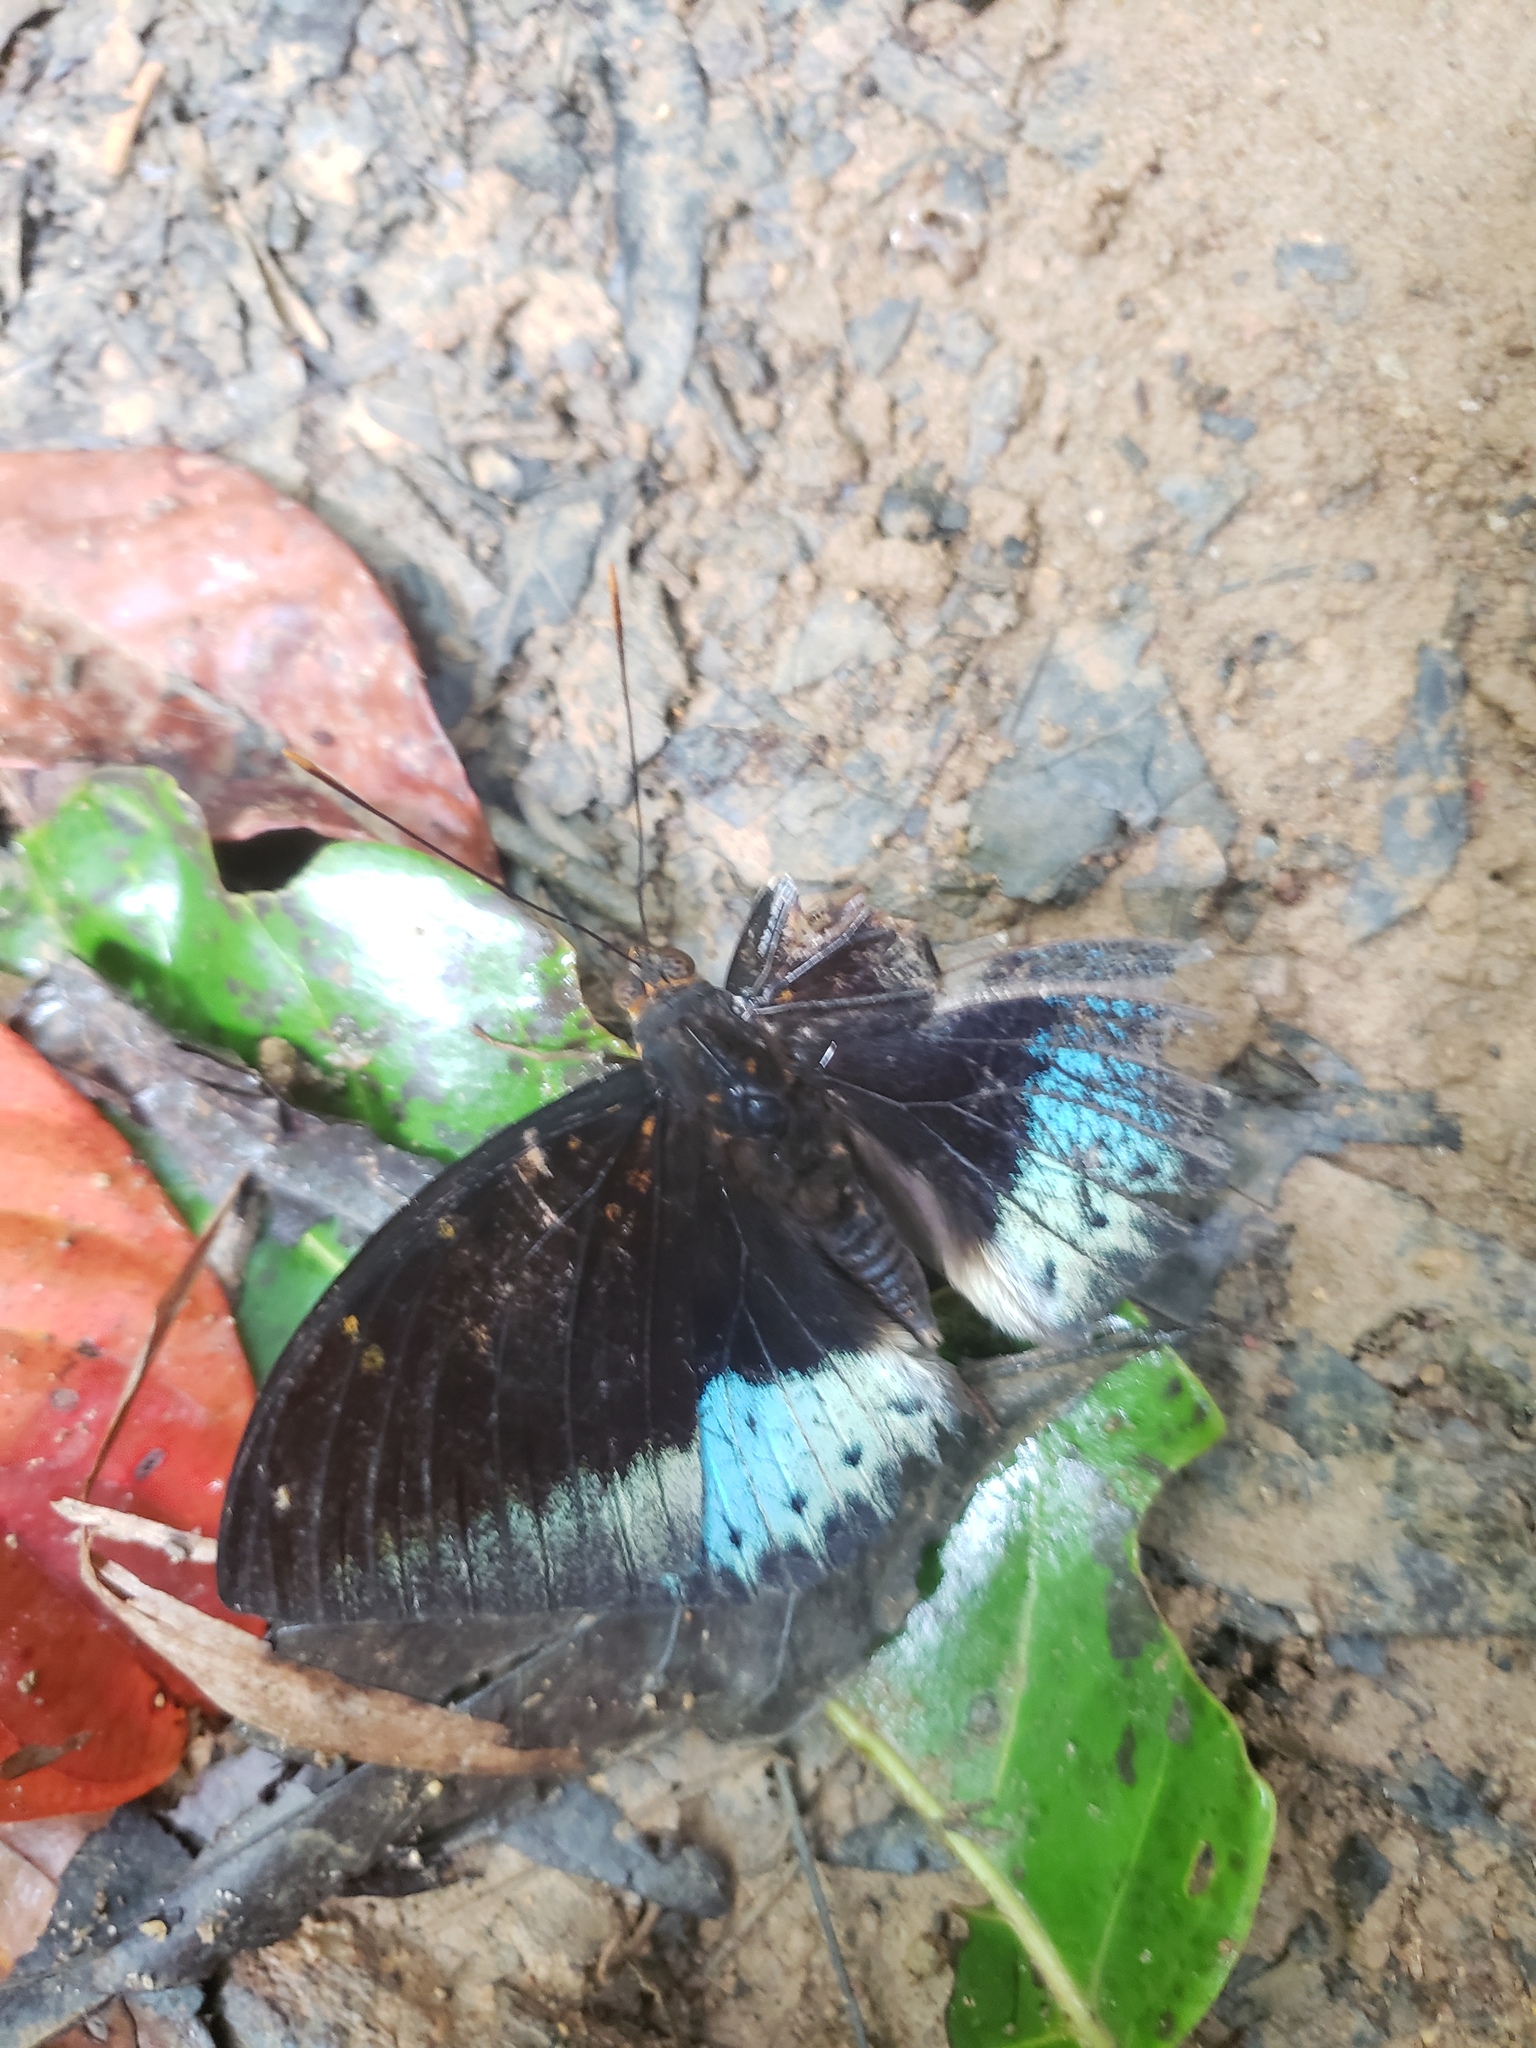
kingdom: Animalia
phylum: Arthropoda
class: Insecta
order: Lepidoptera
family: Nymphalidae
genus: Lexias
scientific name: Lexias pardalis
